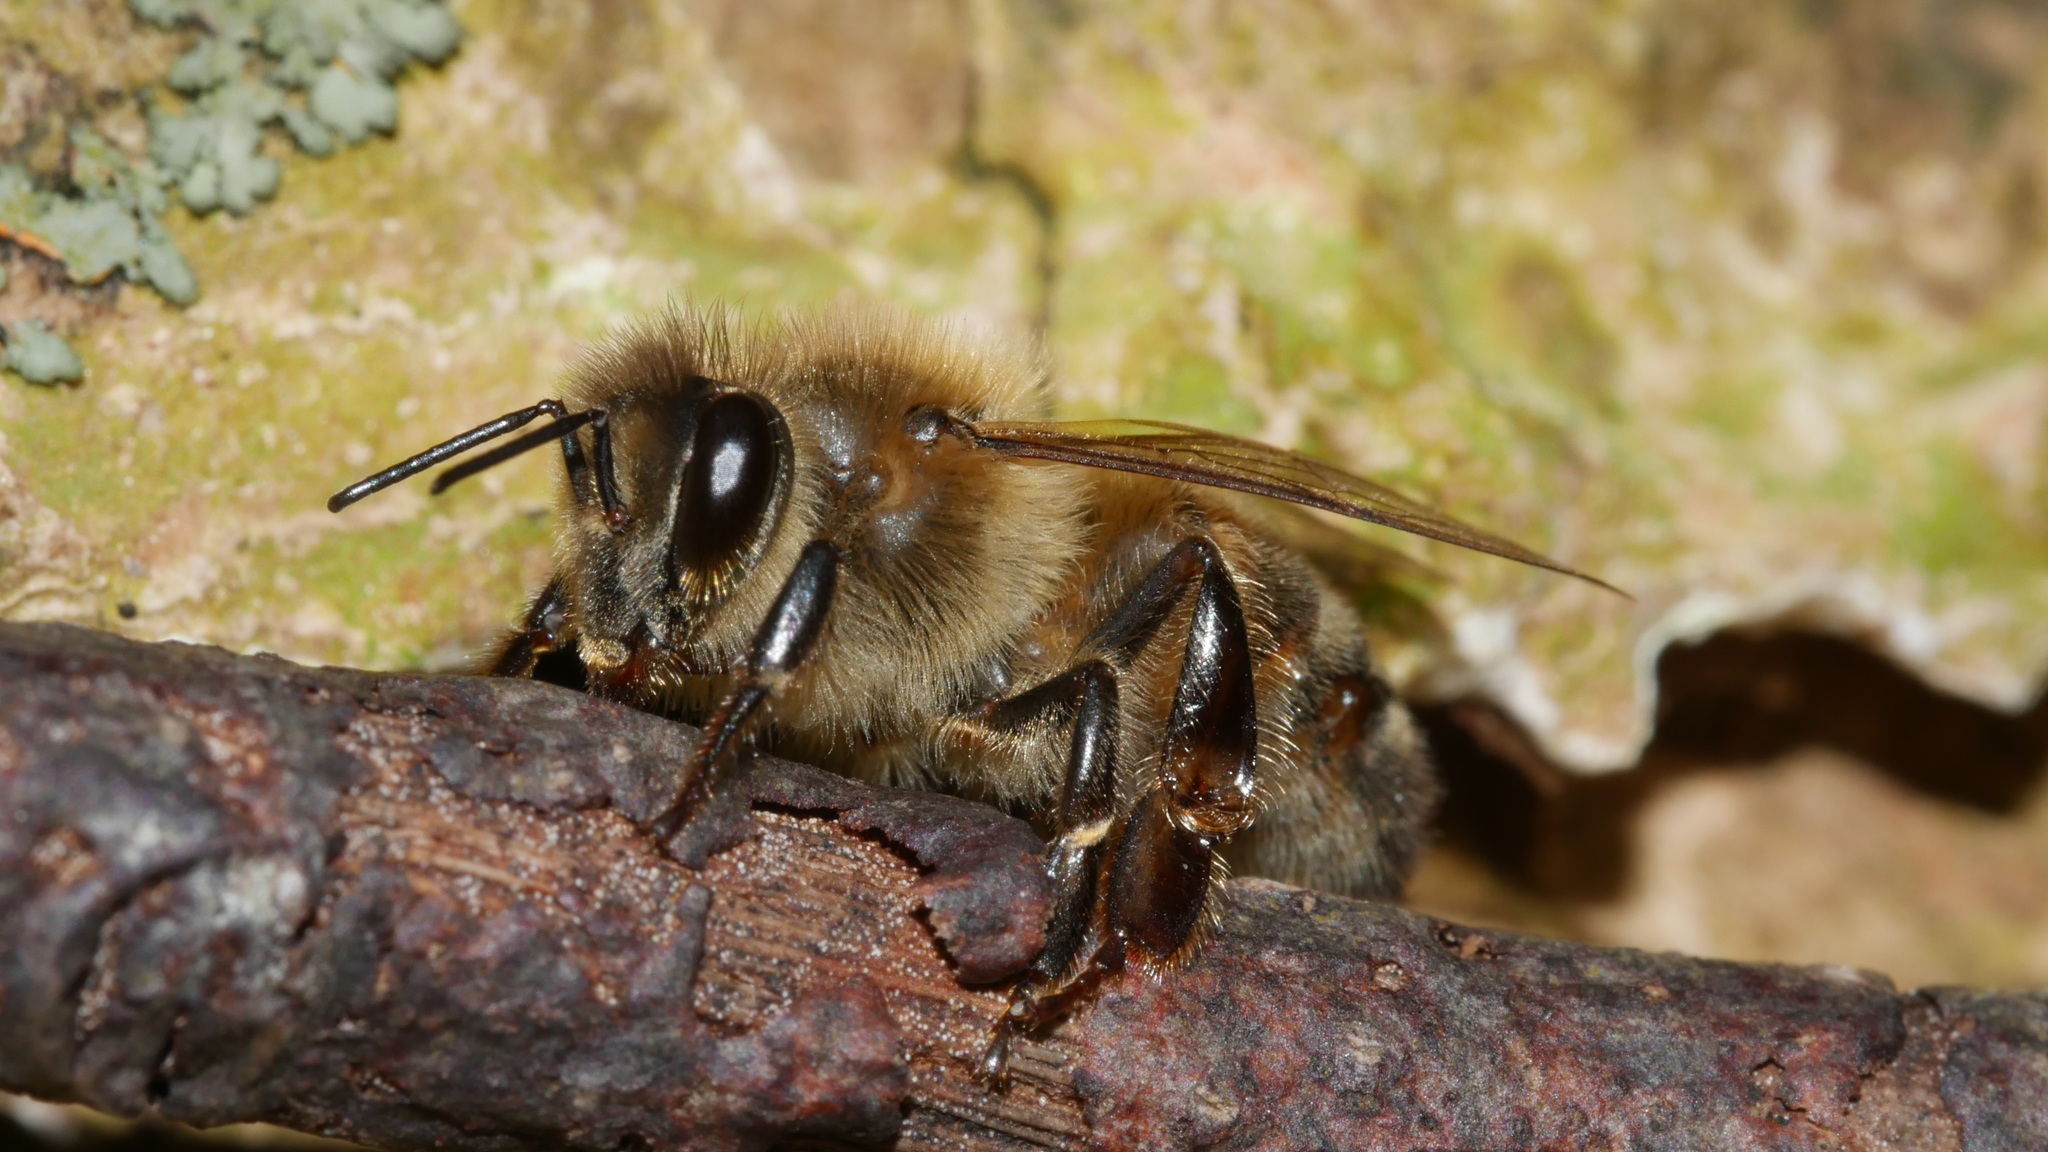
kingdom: Animalia
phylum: Arthropoda
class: Insecta
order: Hymenoptera
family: Apidae
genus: Apis
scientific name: Apis mellifera
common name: Honey bee
